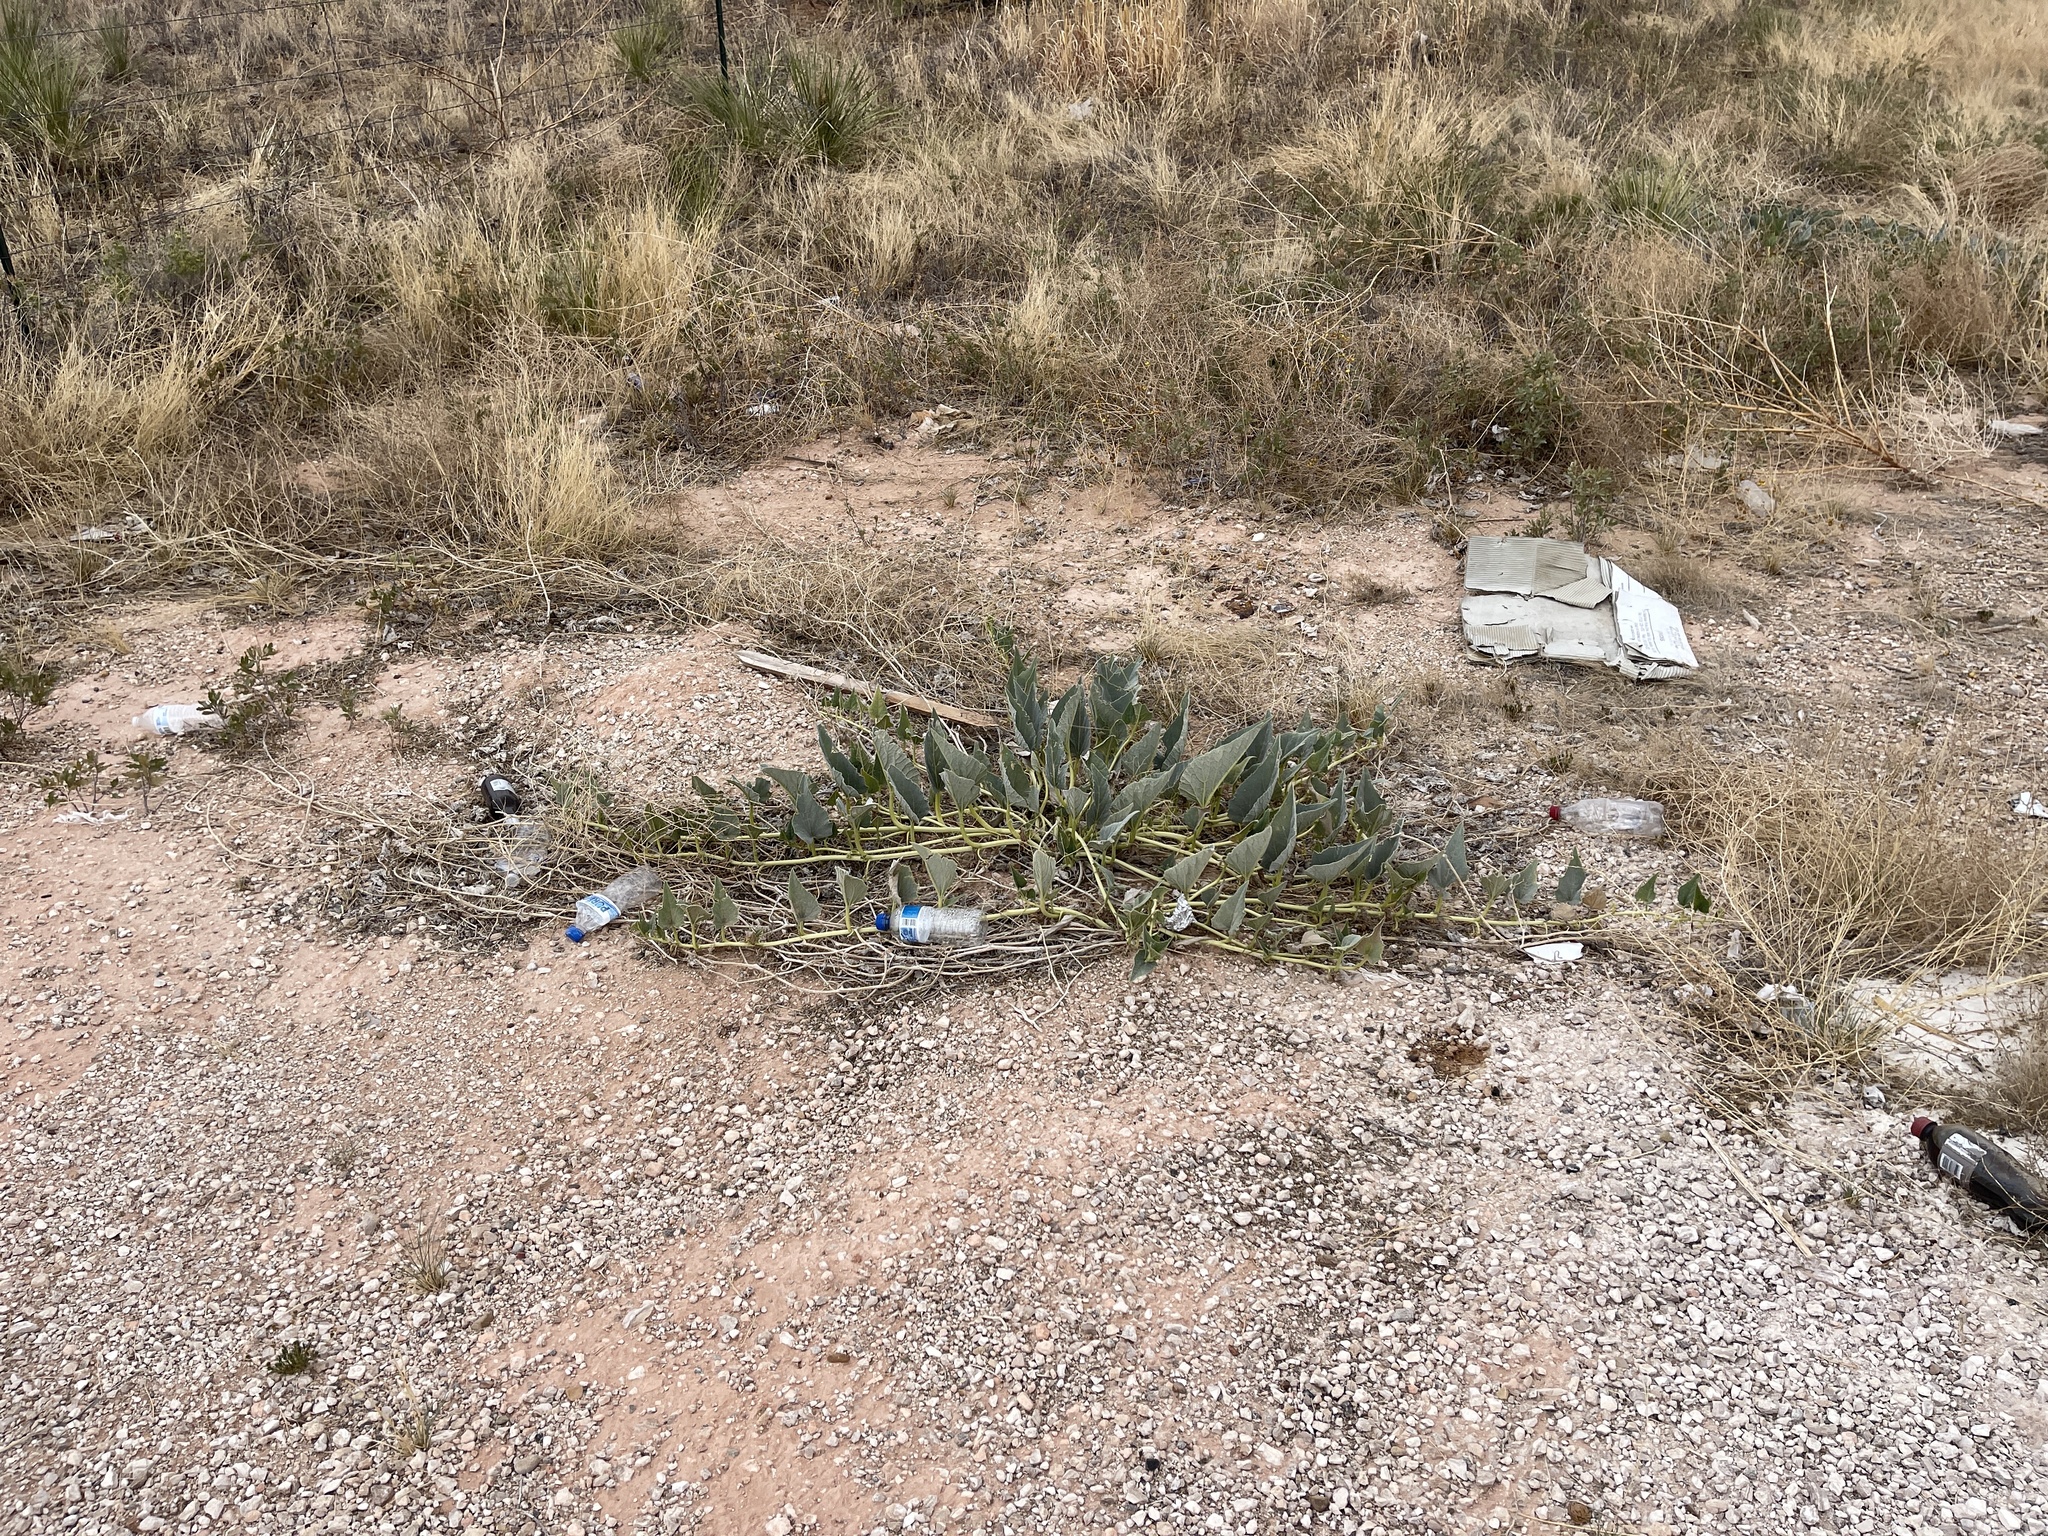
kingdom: Plantae
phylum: Tracheophyta
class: Magnoliopsida
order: Cucurbitales
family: Cucurbitaceae
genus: Cucurbita
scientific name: Cucurbita foetidissima
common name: Buffalo gourd
